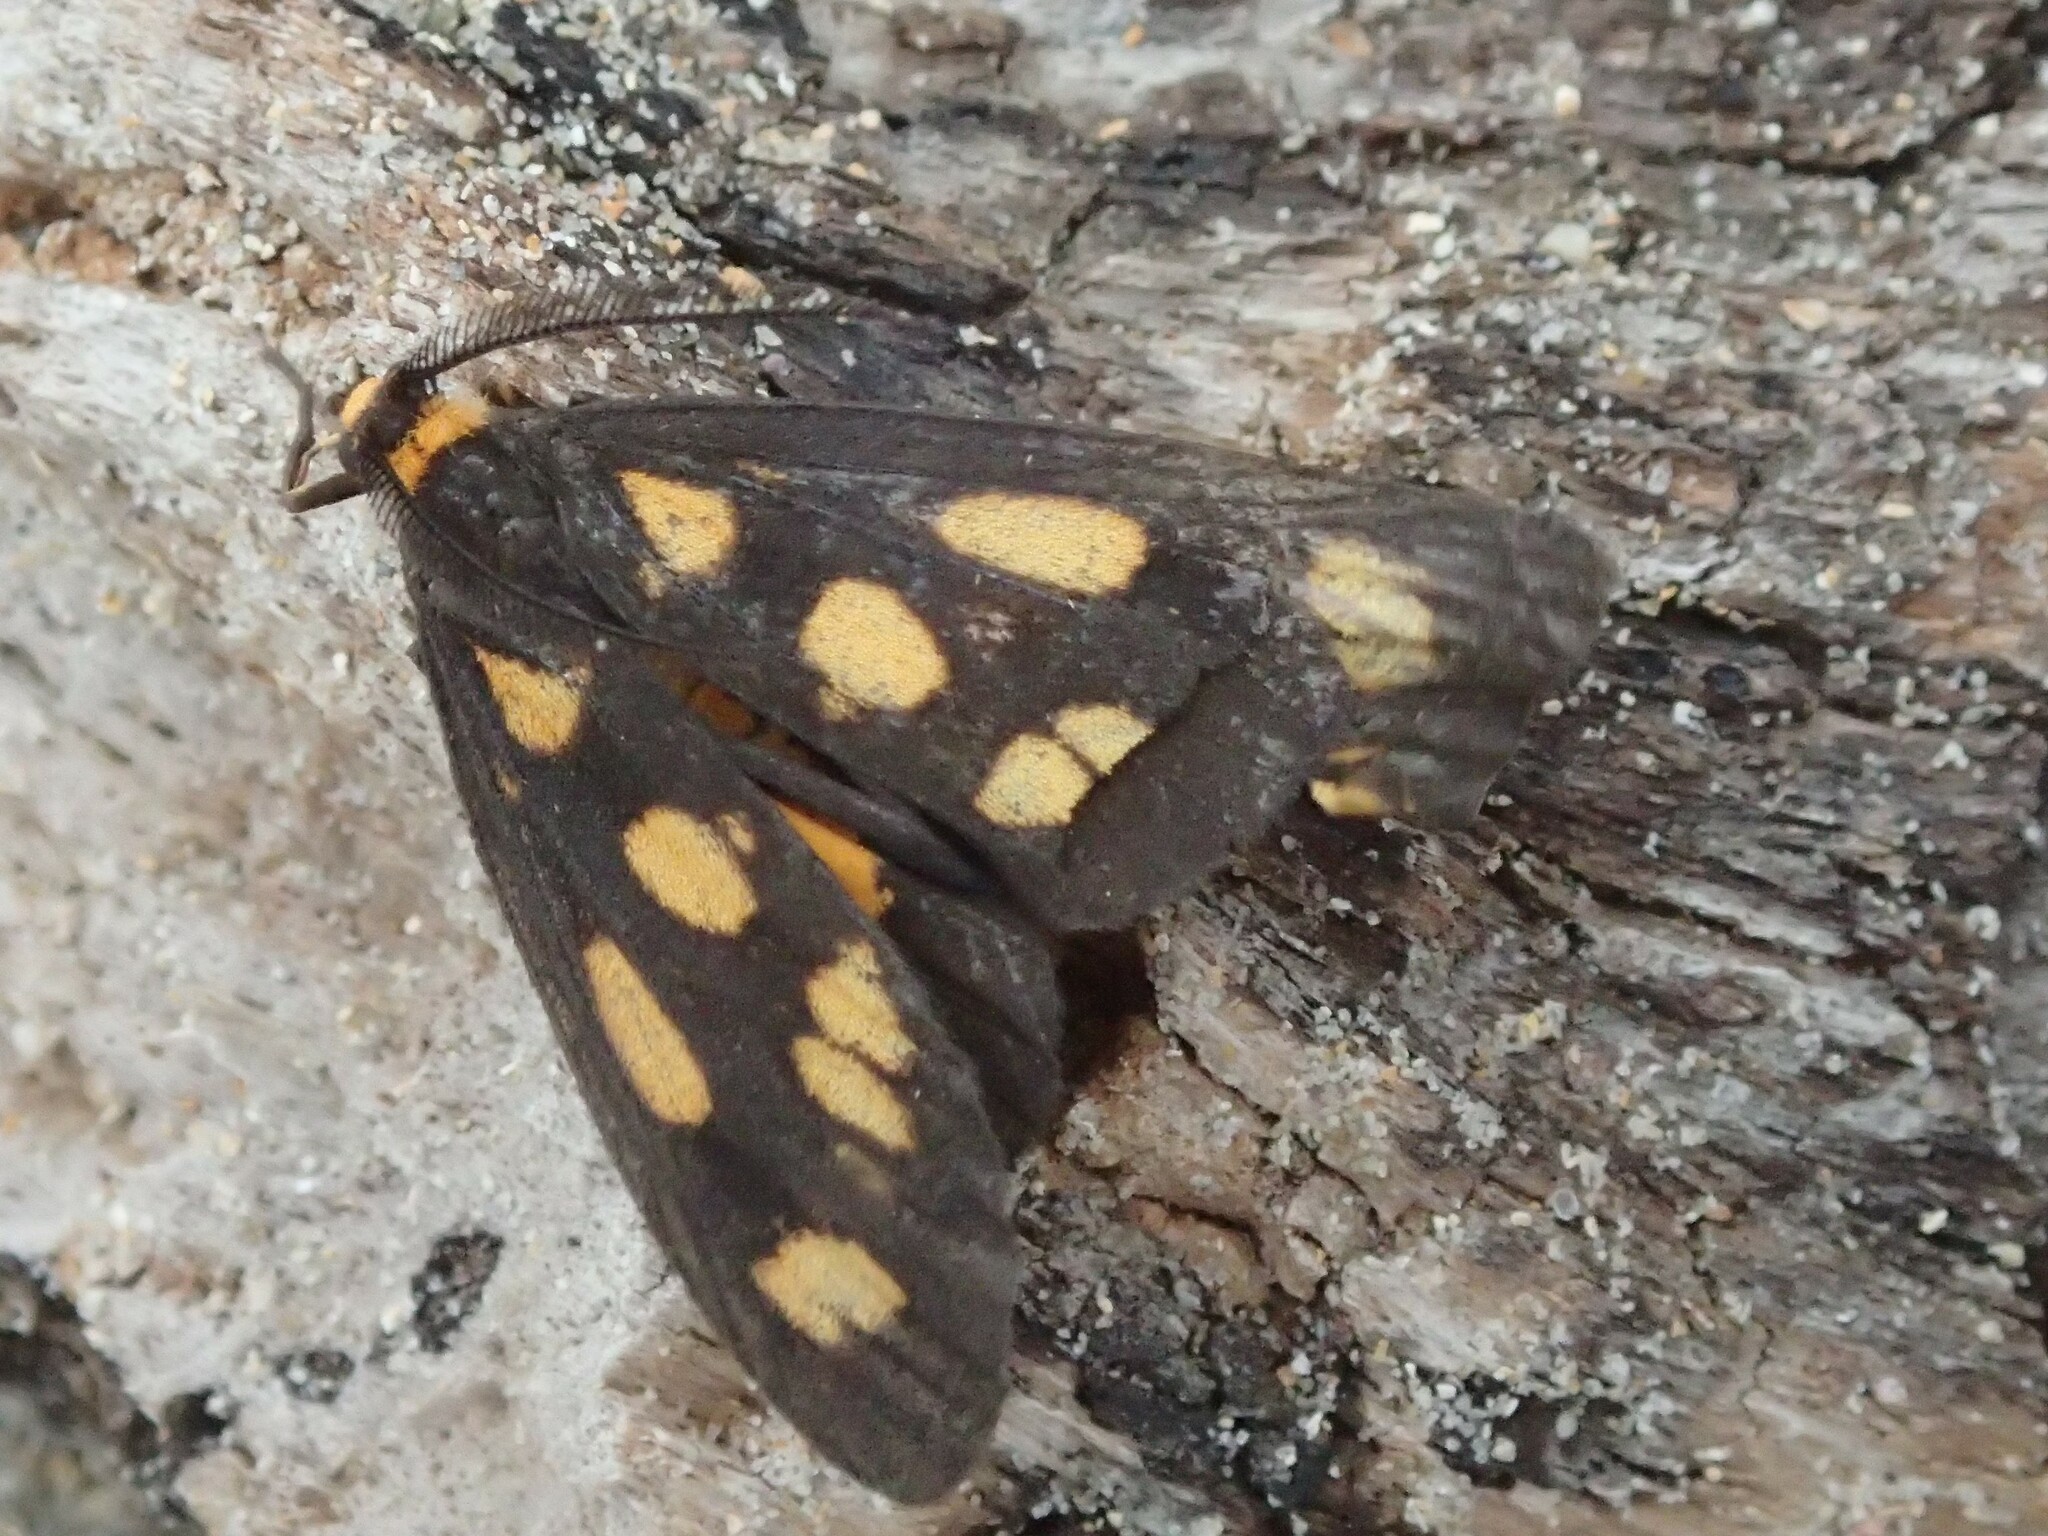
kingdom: Animalia
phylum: Arthropoda
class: Insecta
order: Lepidoptera
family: Erebidae
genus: Asura
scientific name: Asura cervicalis
